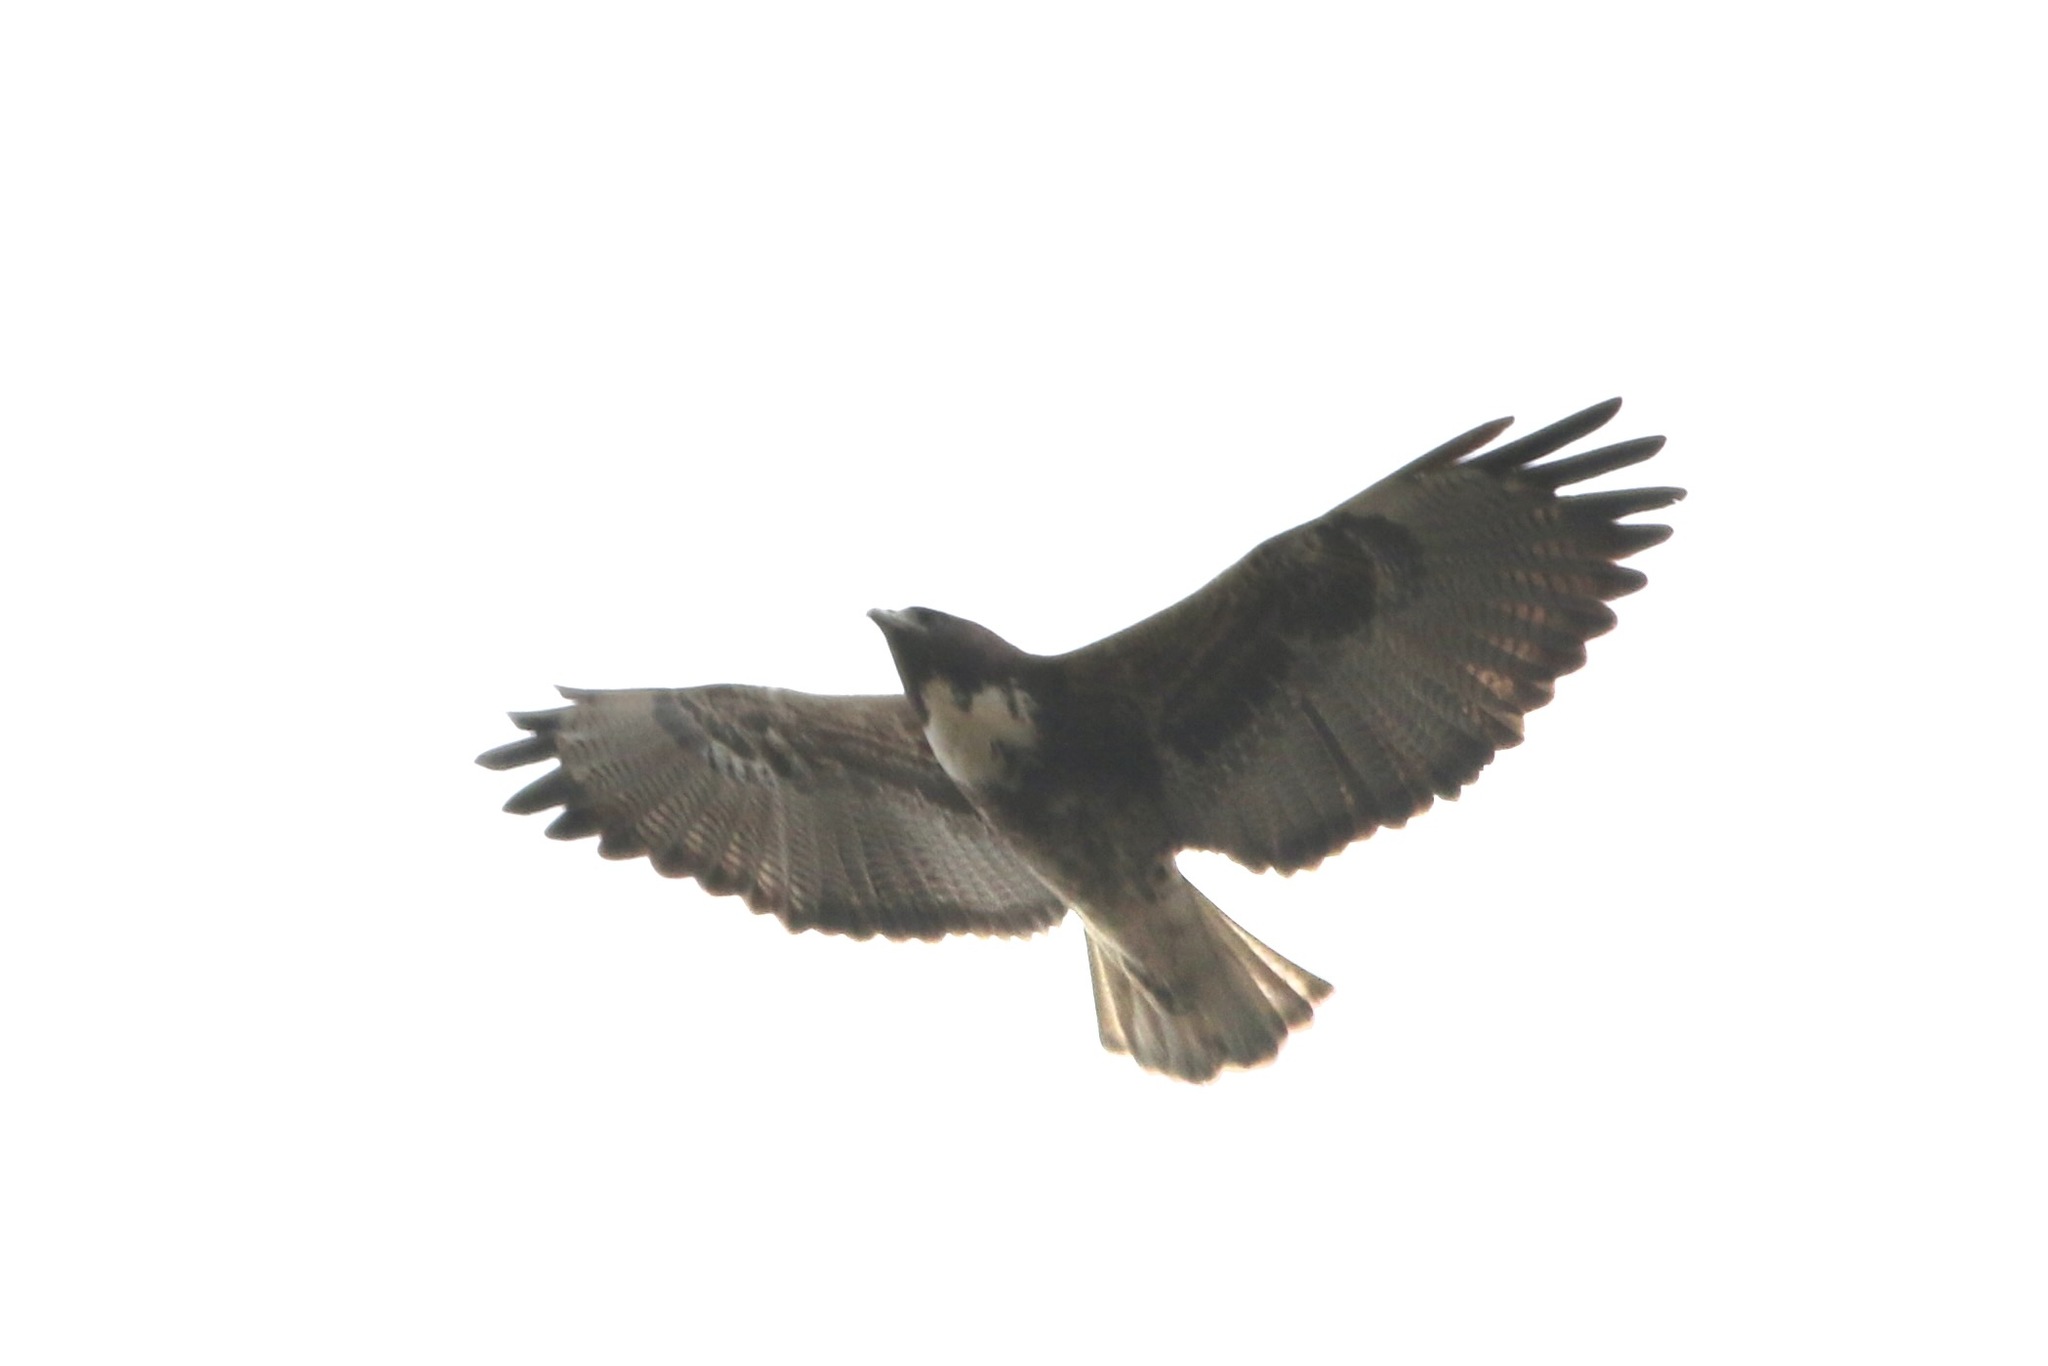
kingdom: Animalia
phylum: Chordata
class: Aves
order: Accipitriformes
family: Accipitridae
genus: Buteo
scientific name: Buteo albicaudatus
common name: White-tailed hawk
